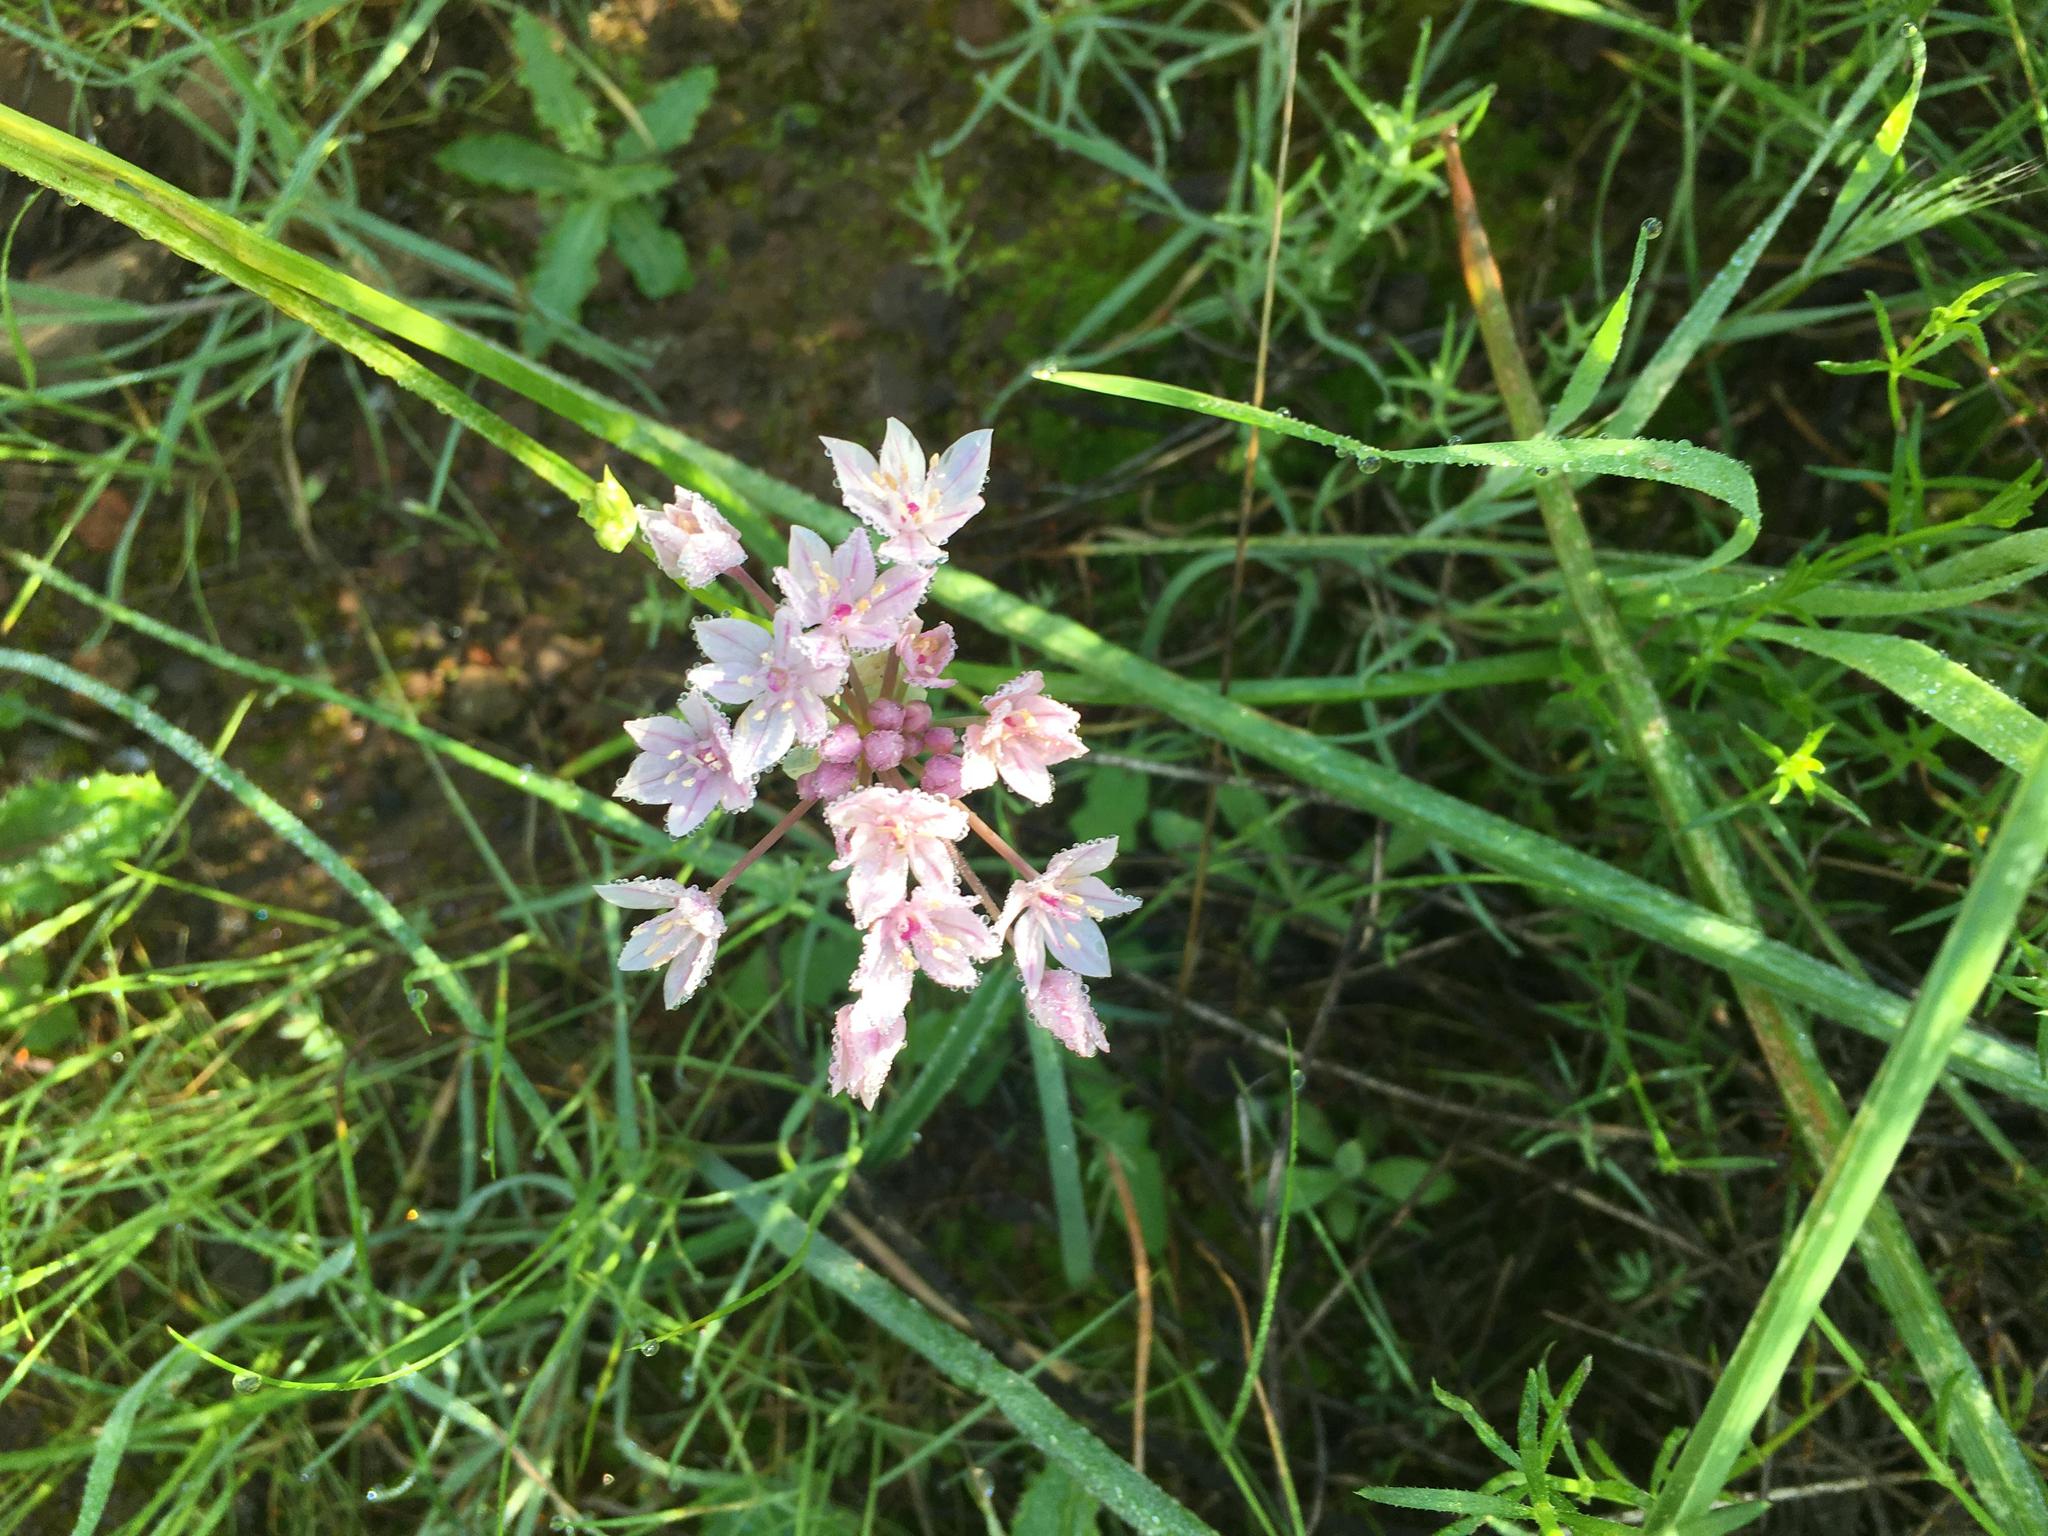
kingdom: Plantae
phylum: Tracheophyta
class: Liliopsida
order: Asparagales
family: Amaryllidaceae
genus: Allium
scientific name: Allium praecox
